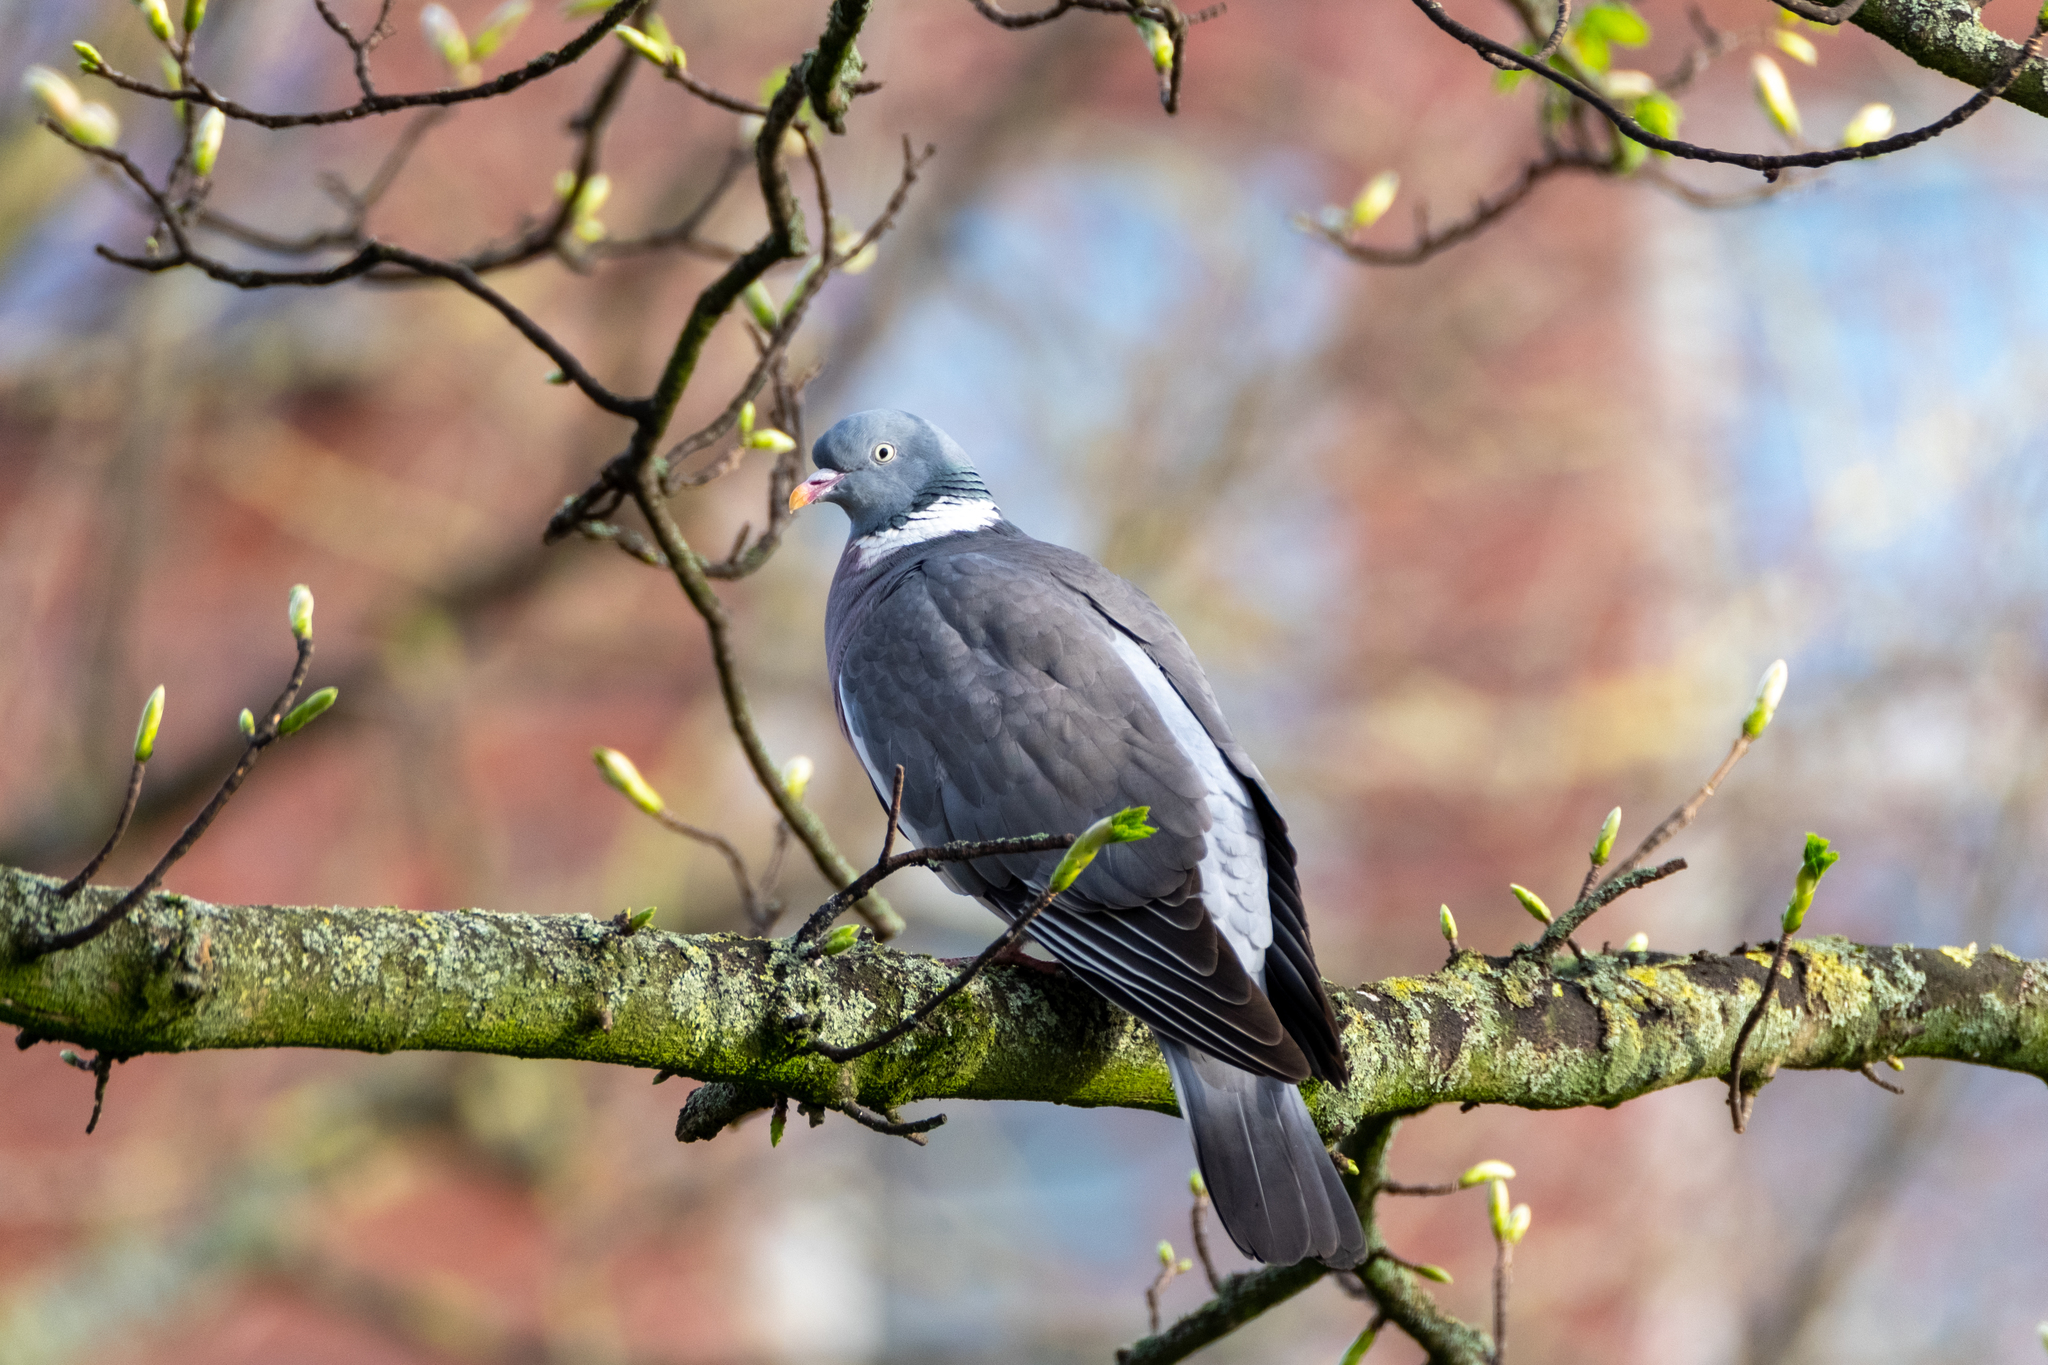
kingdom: Animalia
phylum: Chordata
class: Aves
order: Columbiformes
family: Columbidae
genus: Columba
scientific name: Columba palumbus
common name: Common wood pigeon
